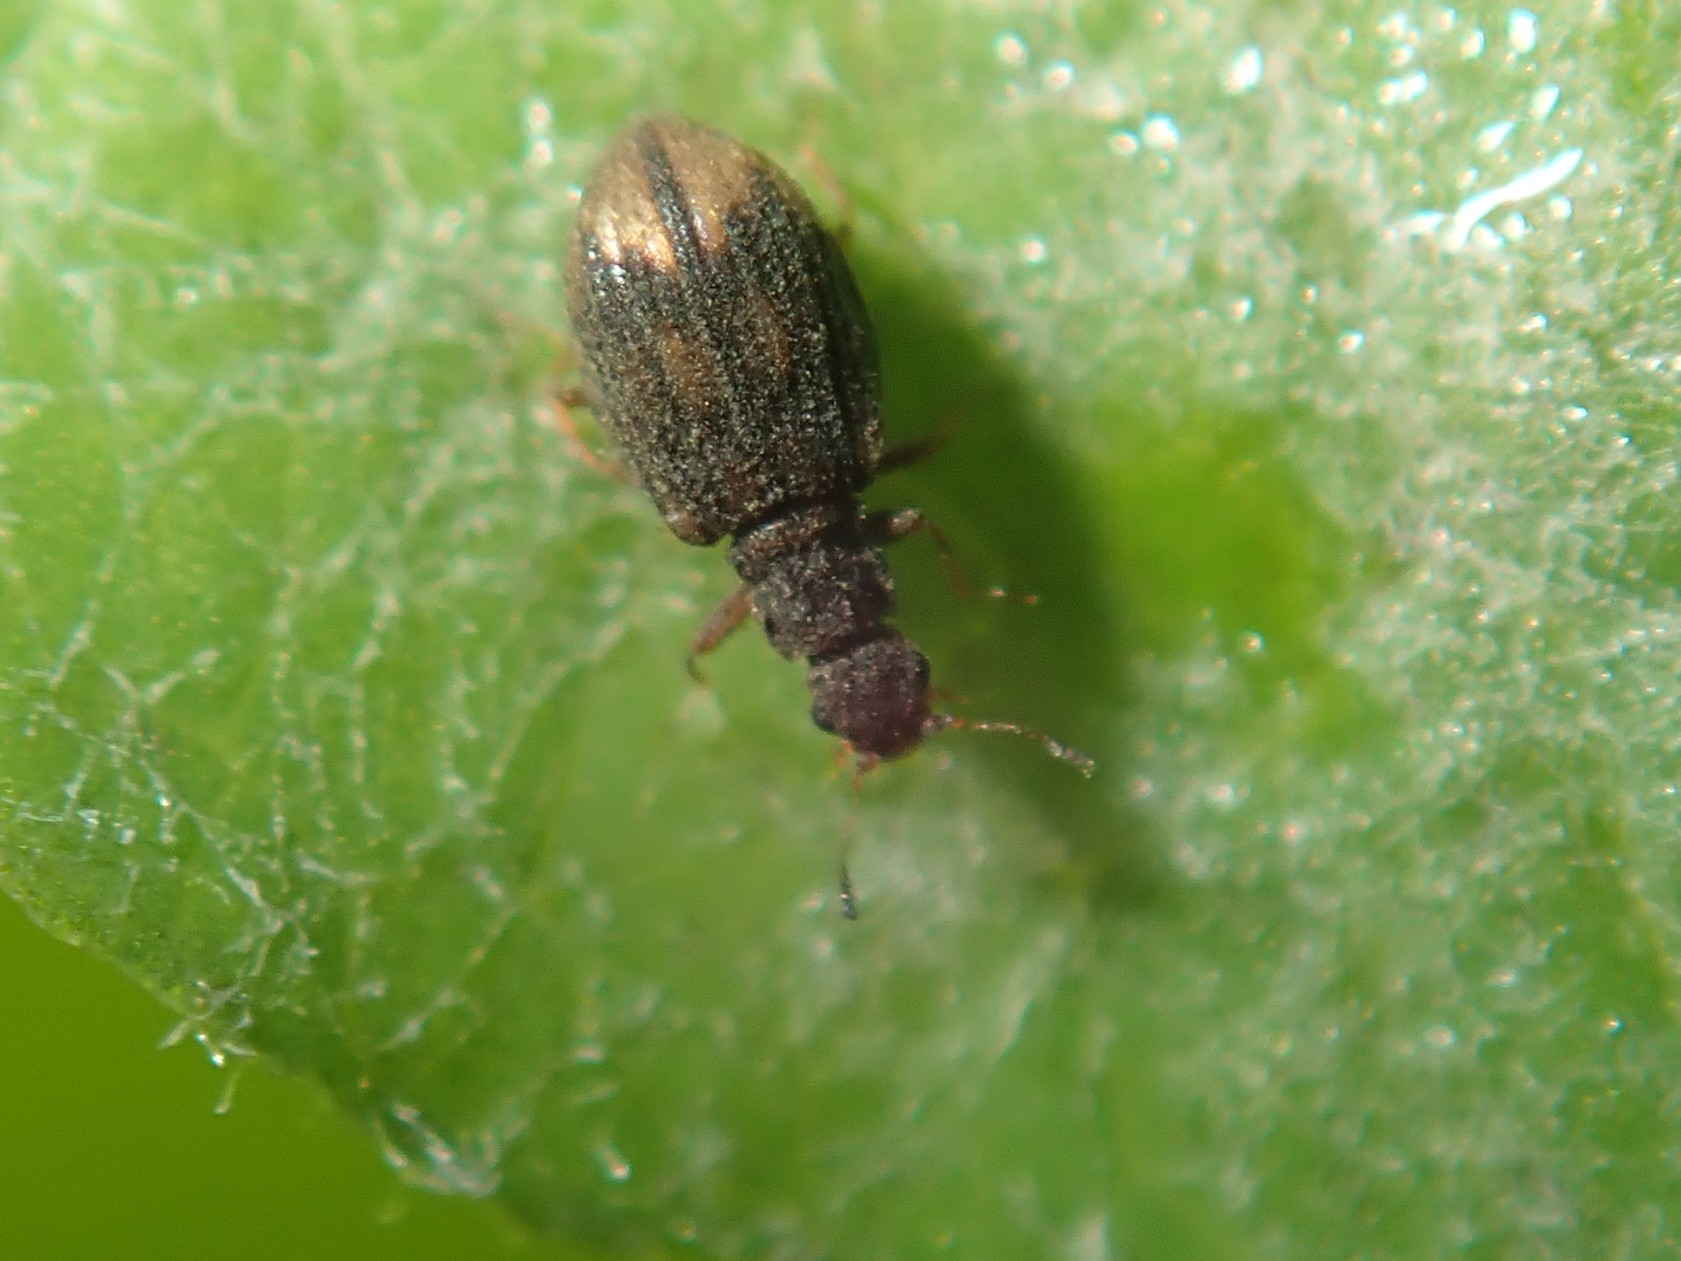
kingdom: Animalia
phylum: Arthropoda
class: Insecta
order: Coleoptera
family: Latridiidae
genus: Cartodere
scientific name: Cartodere bifasciata
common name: Plaster beetle
